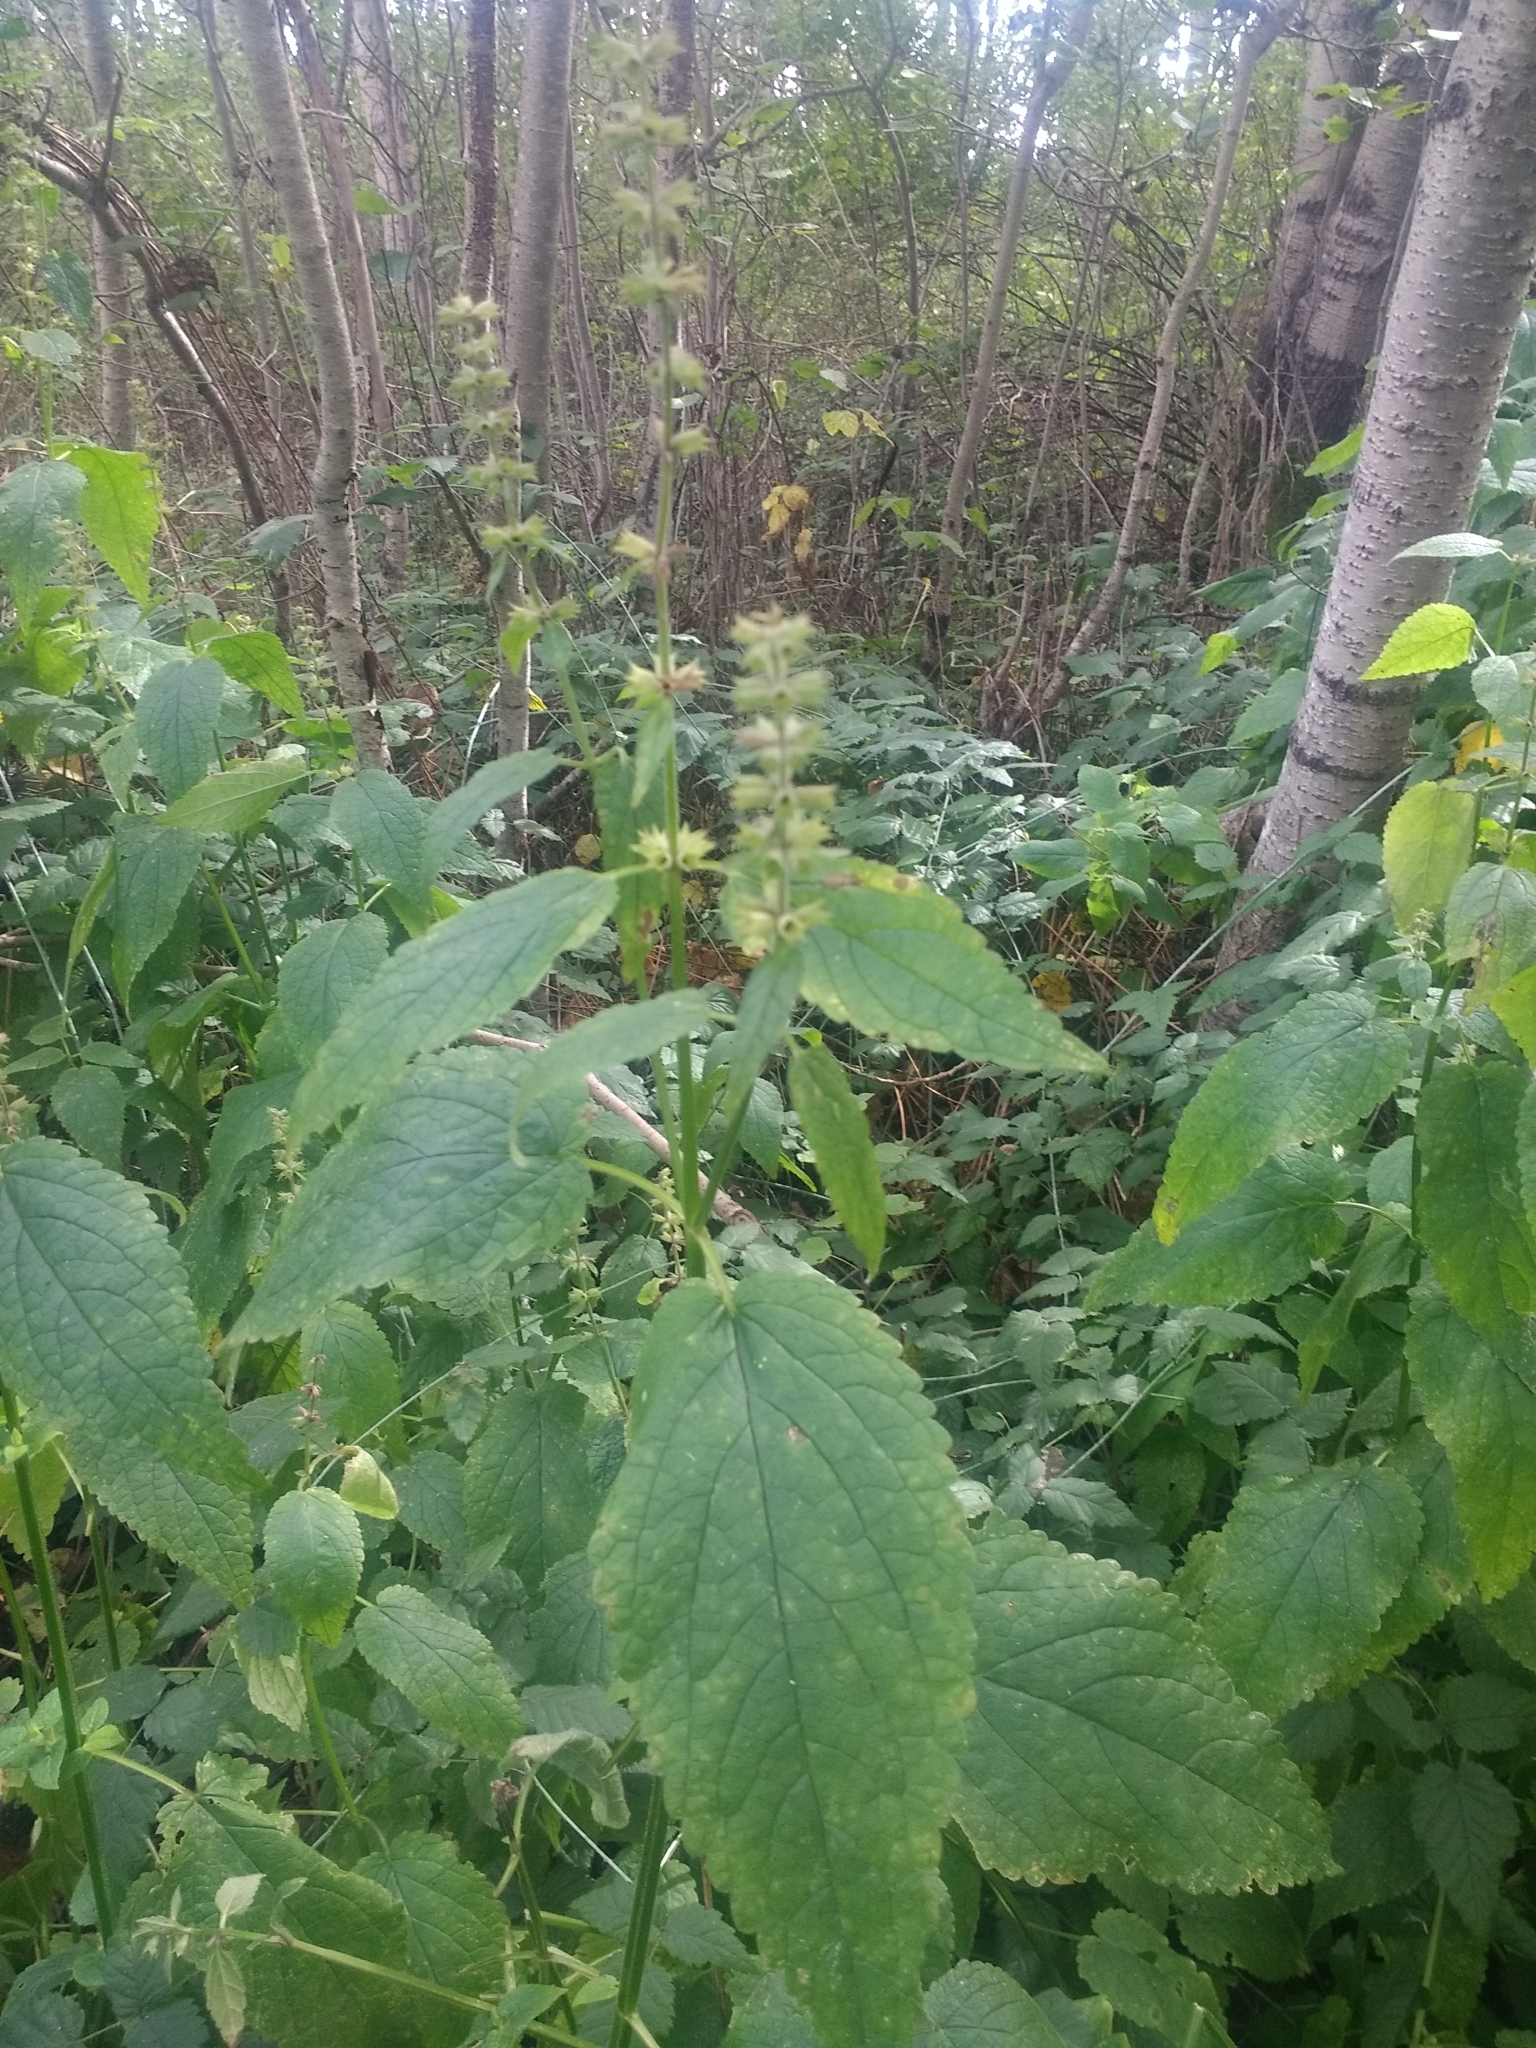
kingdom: Plantae
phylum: Tracheophyta
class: Magnoliopsida
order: Lamiales
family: Lamiaceae
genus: Stachys
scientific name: Stachys chamissonis
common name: Coastal hedge-nettle
